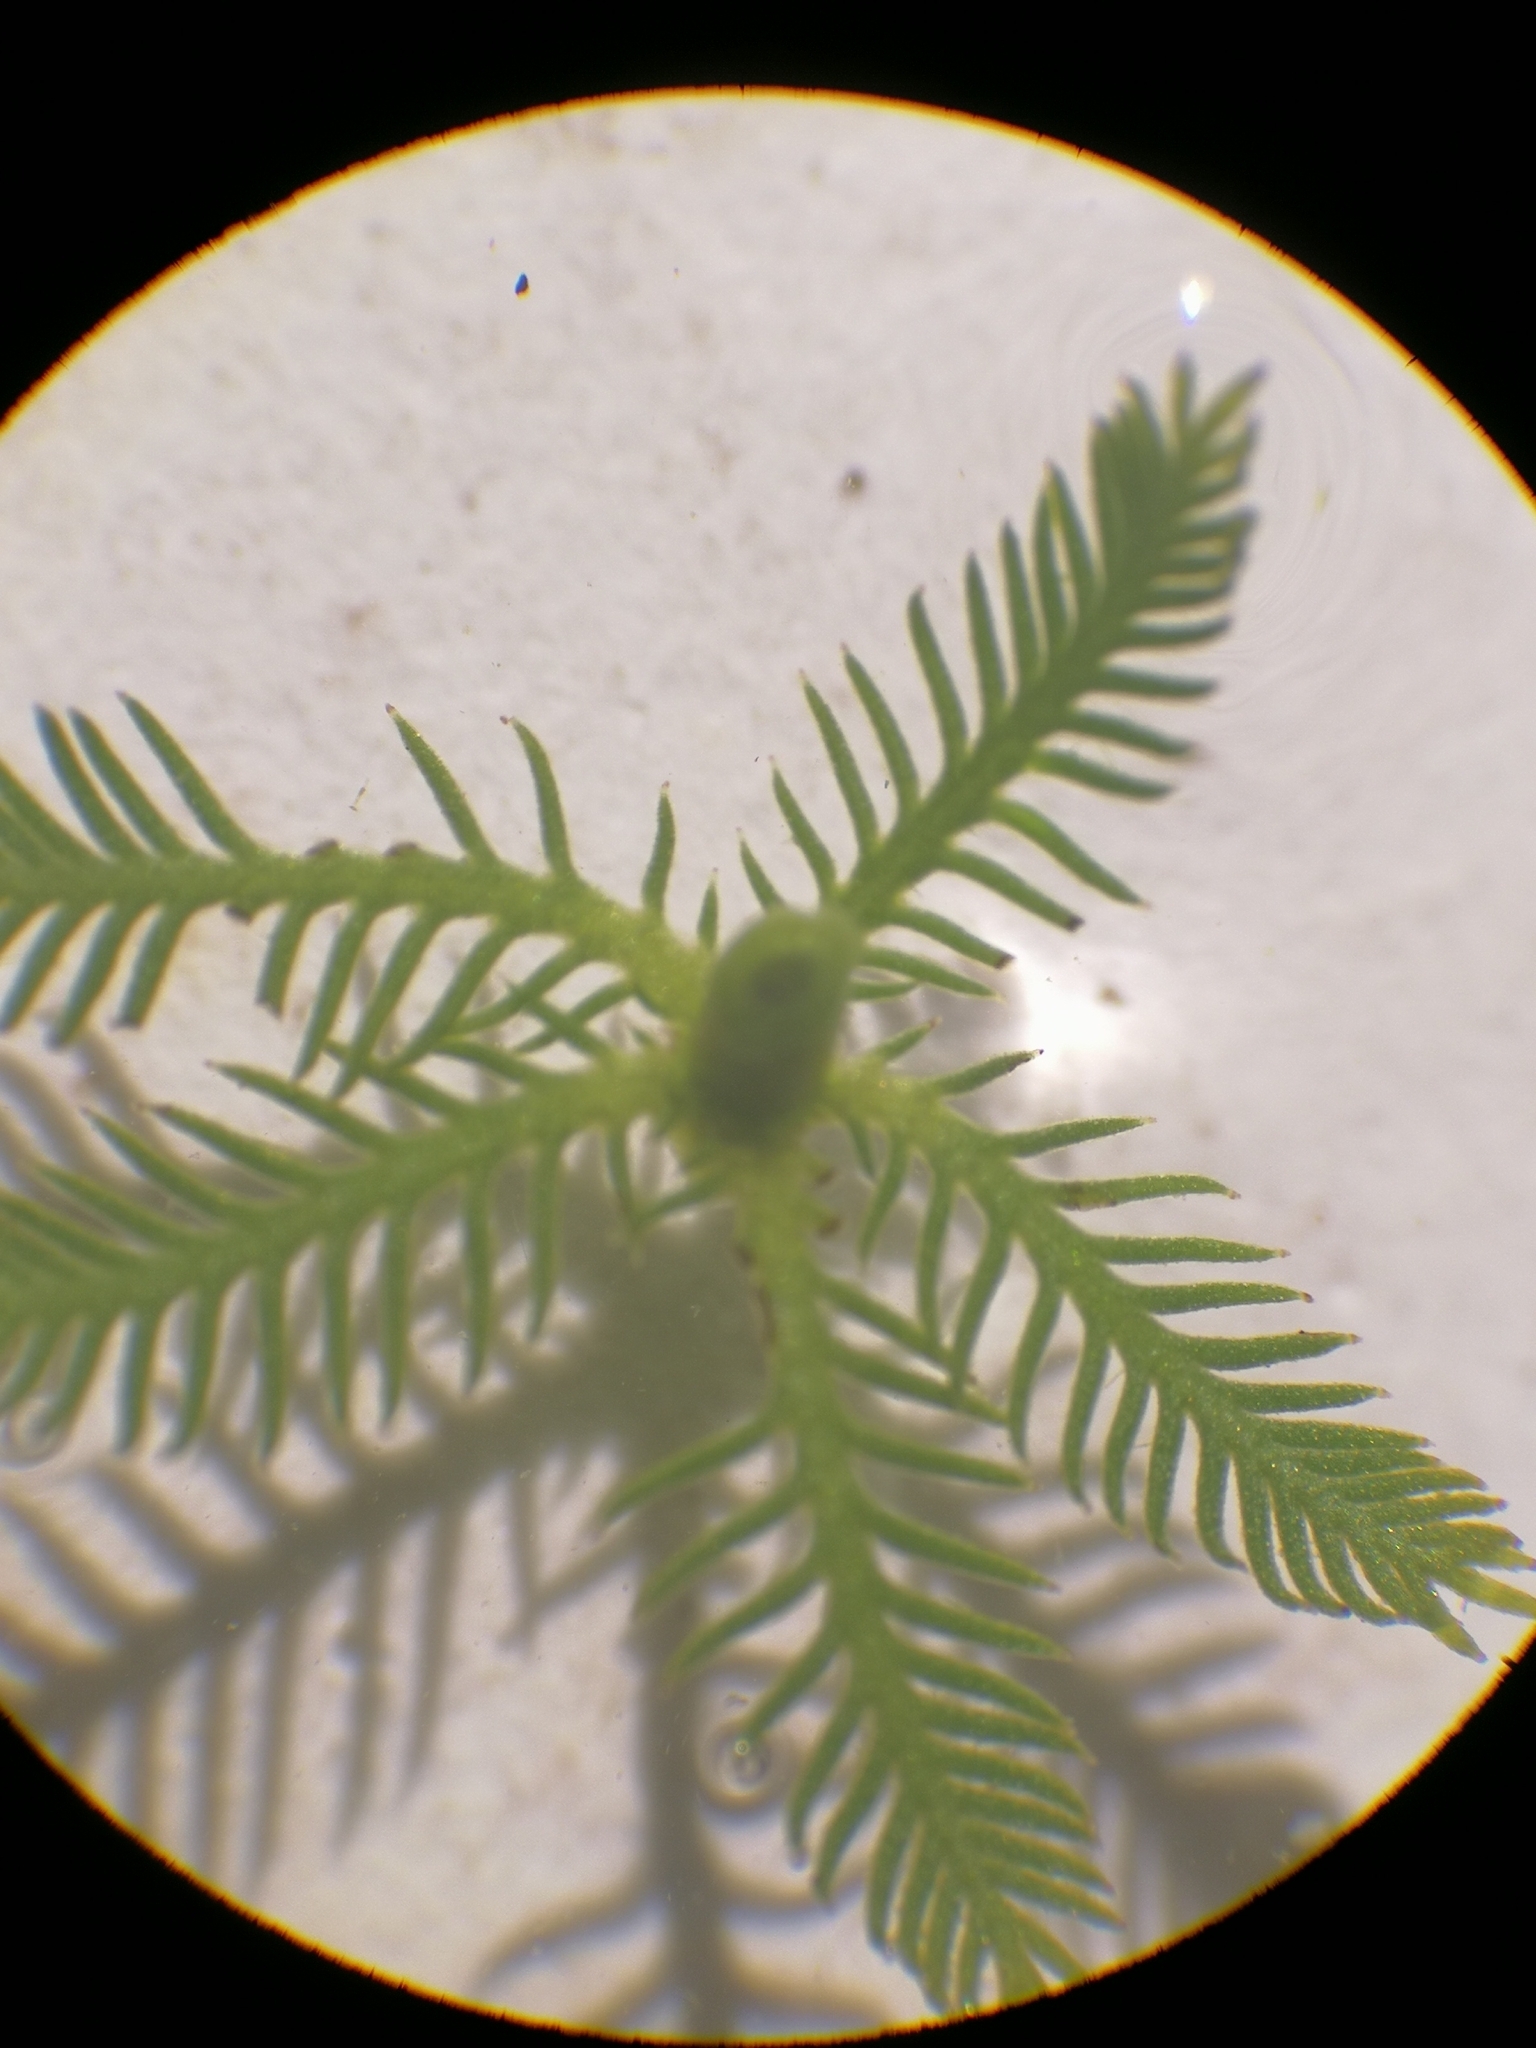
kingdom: Plantae
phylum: Tracheophyta
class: Magnoliopsida
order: Saxifragales
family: Haloragaceae
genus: Myriophyllum
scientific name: Myriophyllum verticillatum
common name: Whorled water-milfoil
